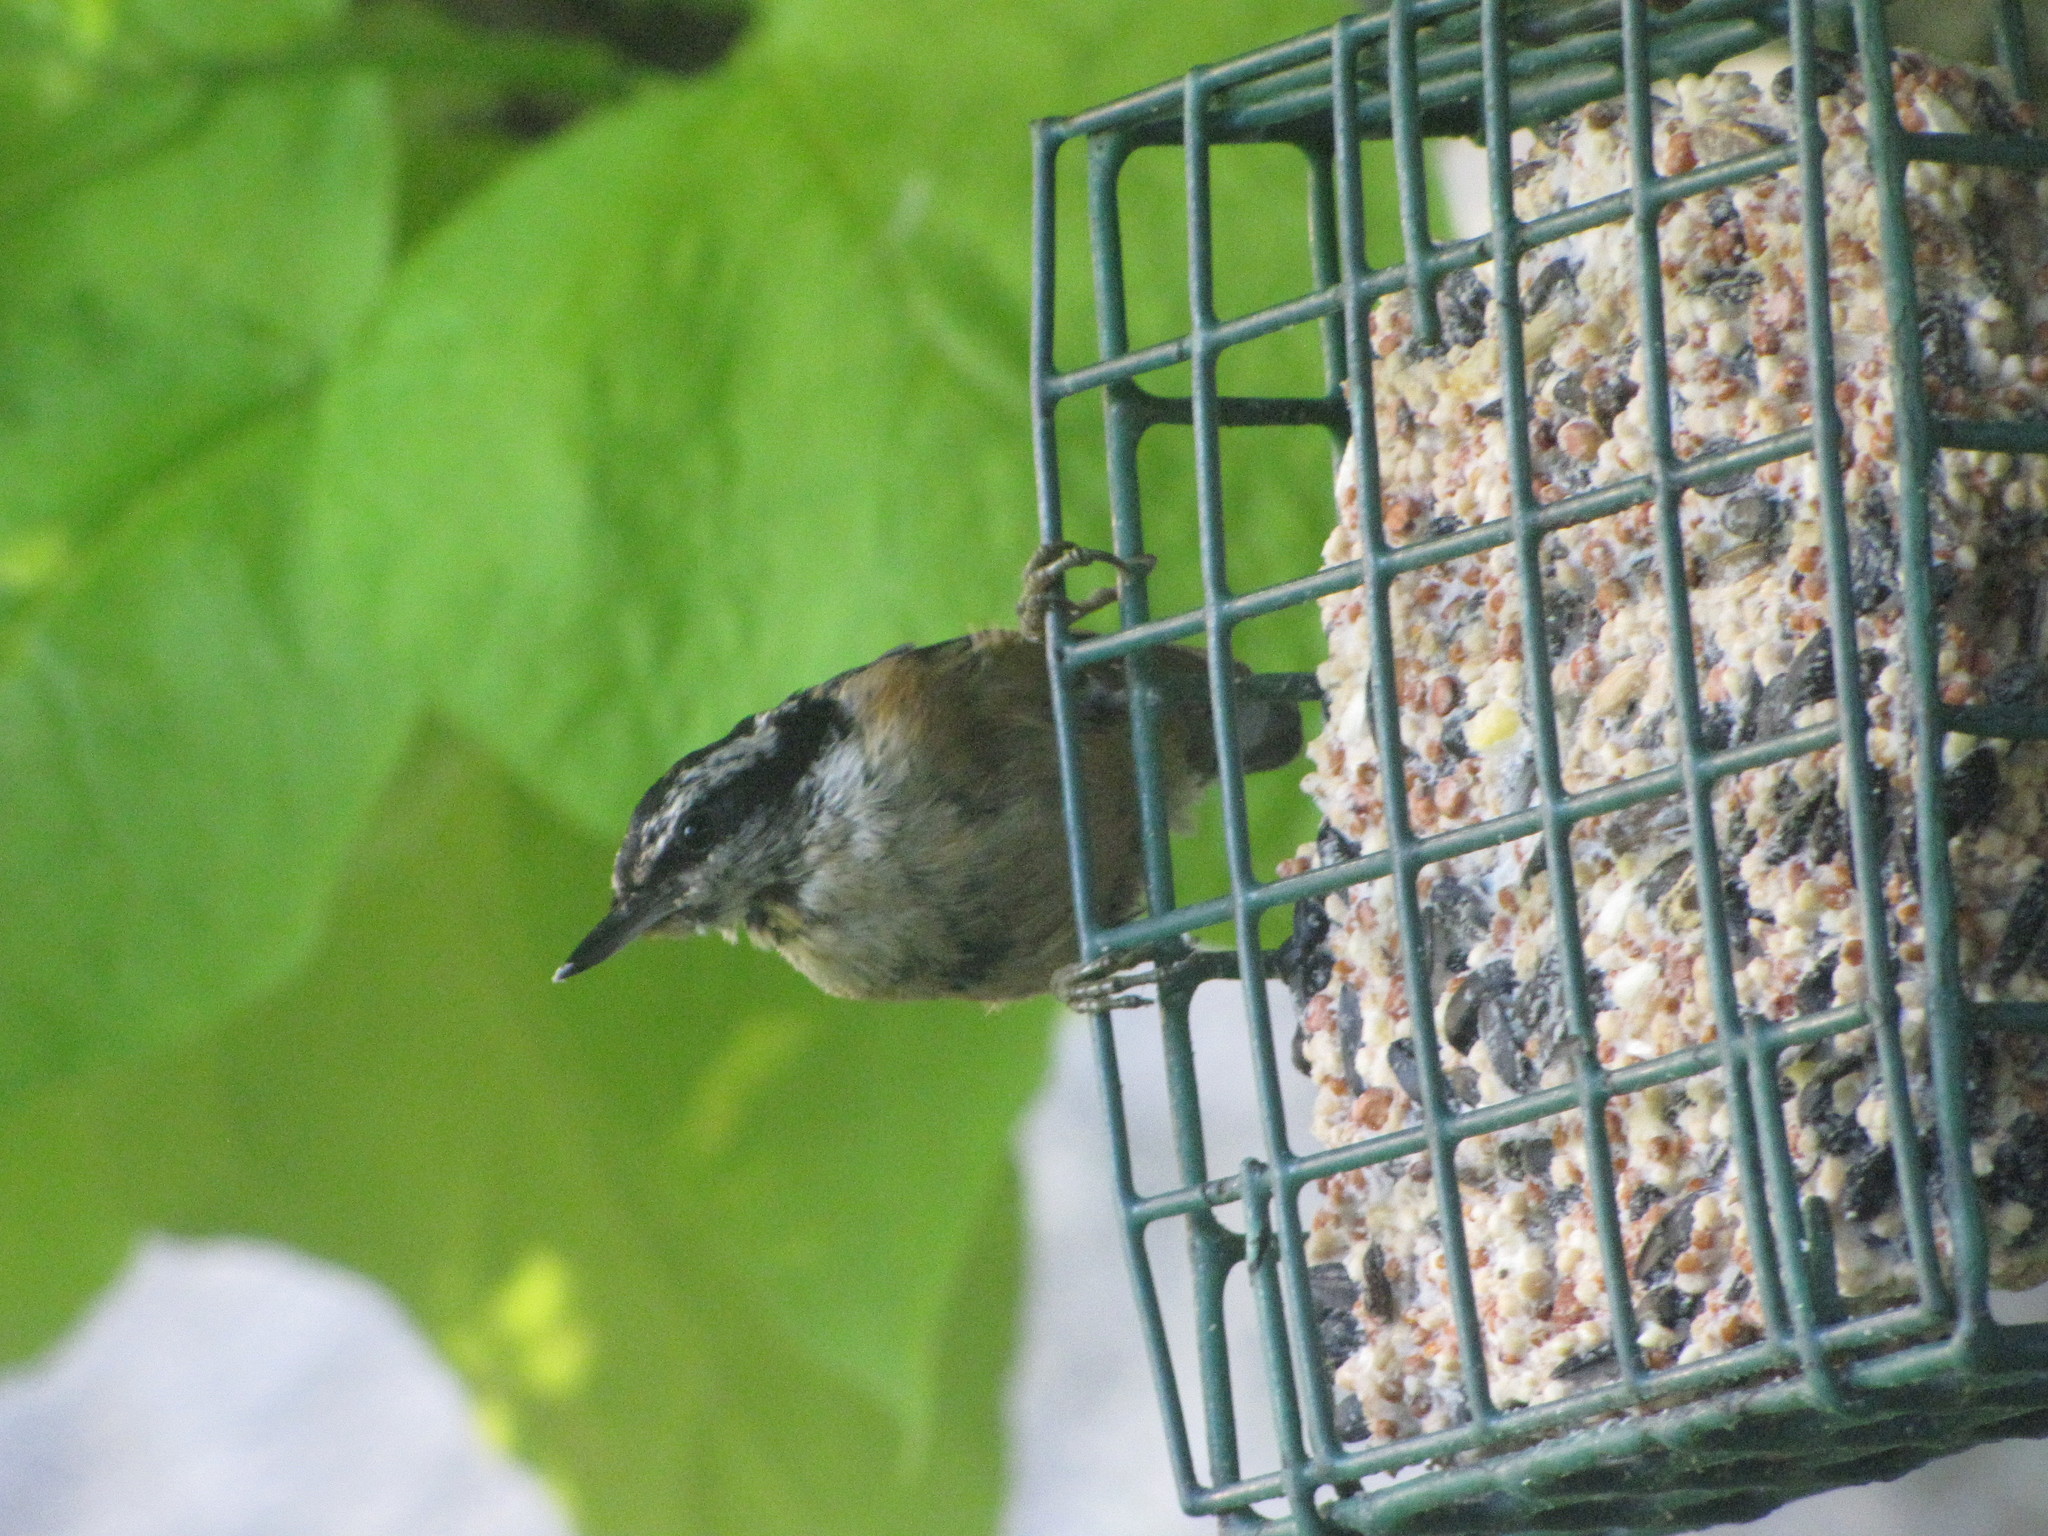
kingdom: Animalia
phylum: Chordata
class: Aves
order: Passeriformes
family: Sittidae
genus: Sitta
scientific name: Sitta canadensis
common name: Red-breasted nuthatch
